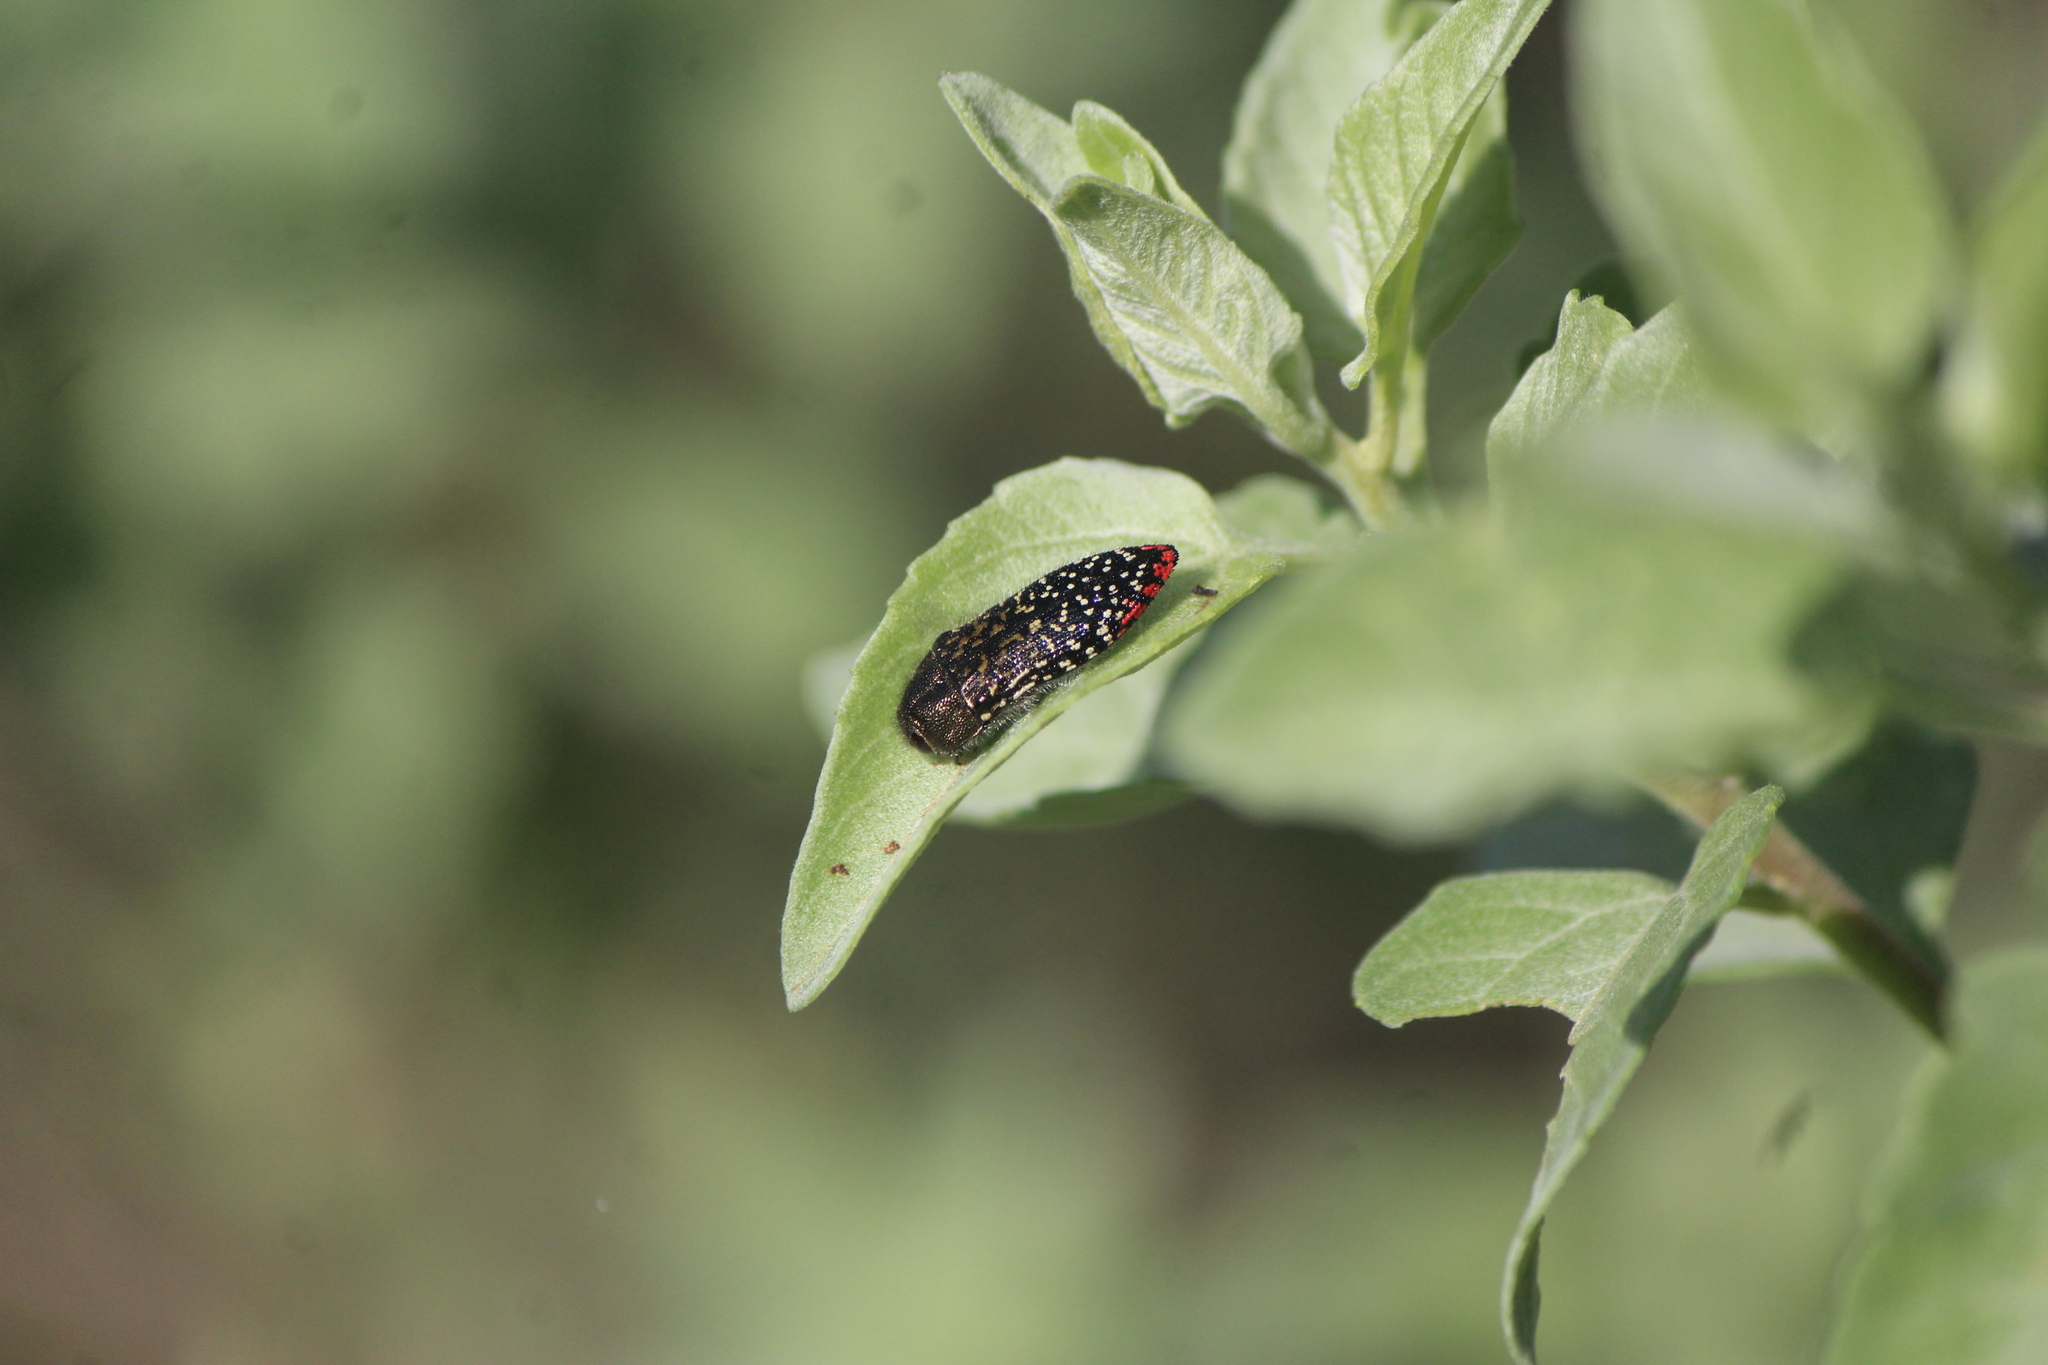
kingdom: Animalia
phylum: Arthropoda
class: Insecta
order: Coleoptera
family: Buprestidae
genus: Acmaeodera
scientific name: Acmaeodera haemorrhoa
